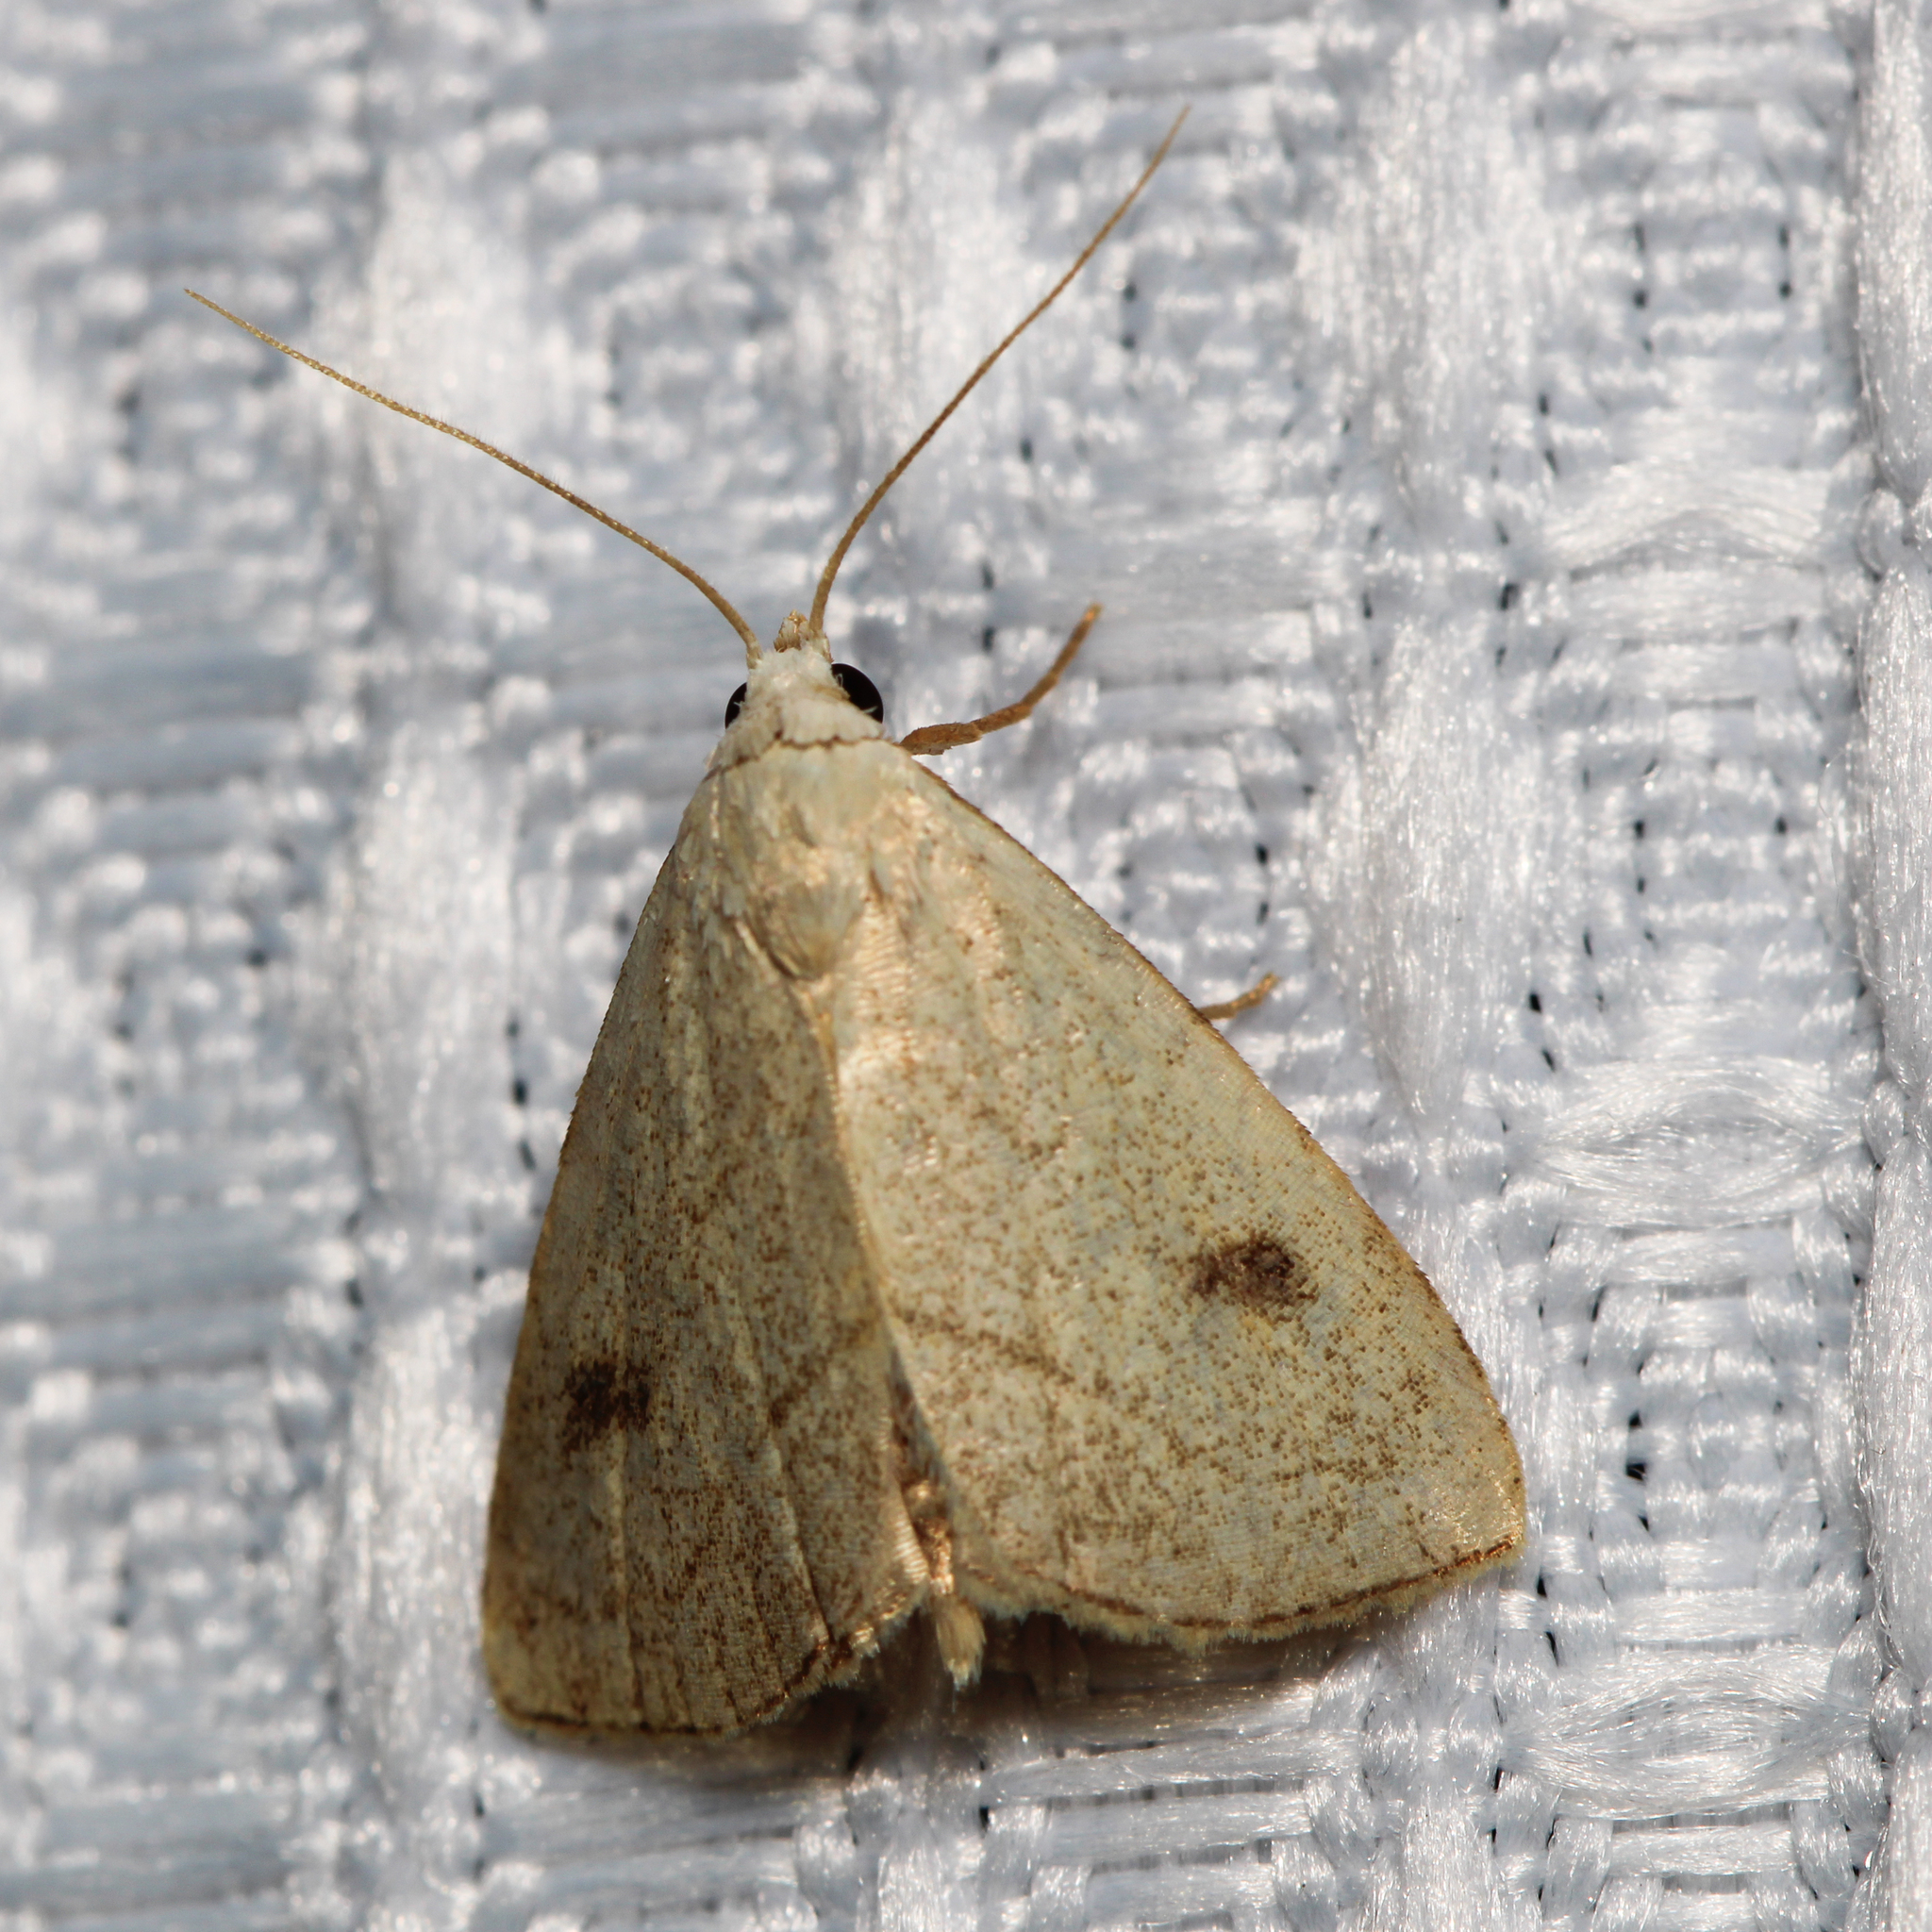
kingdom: Animalia
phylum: Arthropoda
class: Insecta
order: Lepidoptera
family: Erebidae
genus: Rivula
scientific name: Rivula propinqualis
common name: Spotted grass moth
